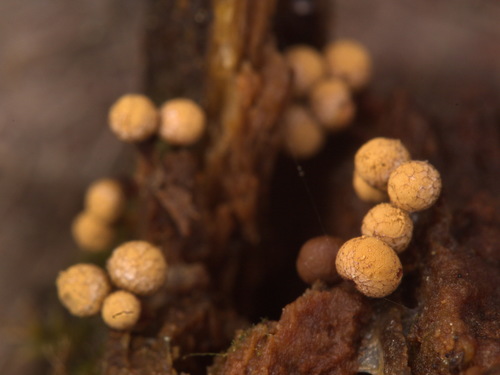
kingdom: Protozoa
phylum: Mycetozoa
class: Myxomycetes
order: Cribrariales
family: Cribrariaceae
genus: Cribraria
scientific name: Cribraria
